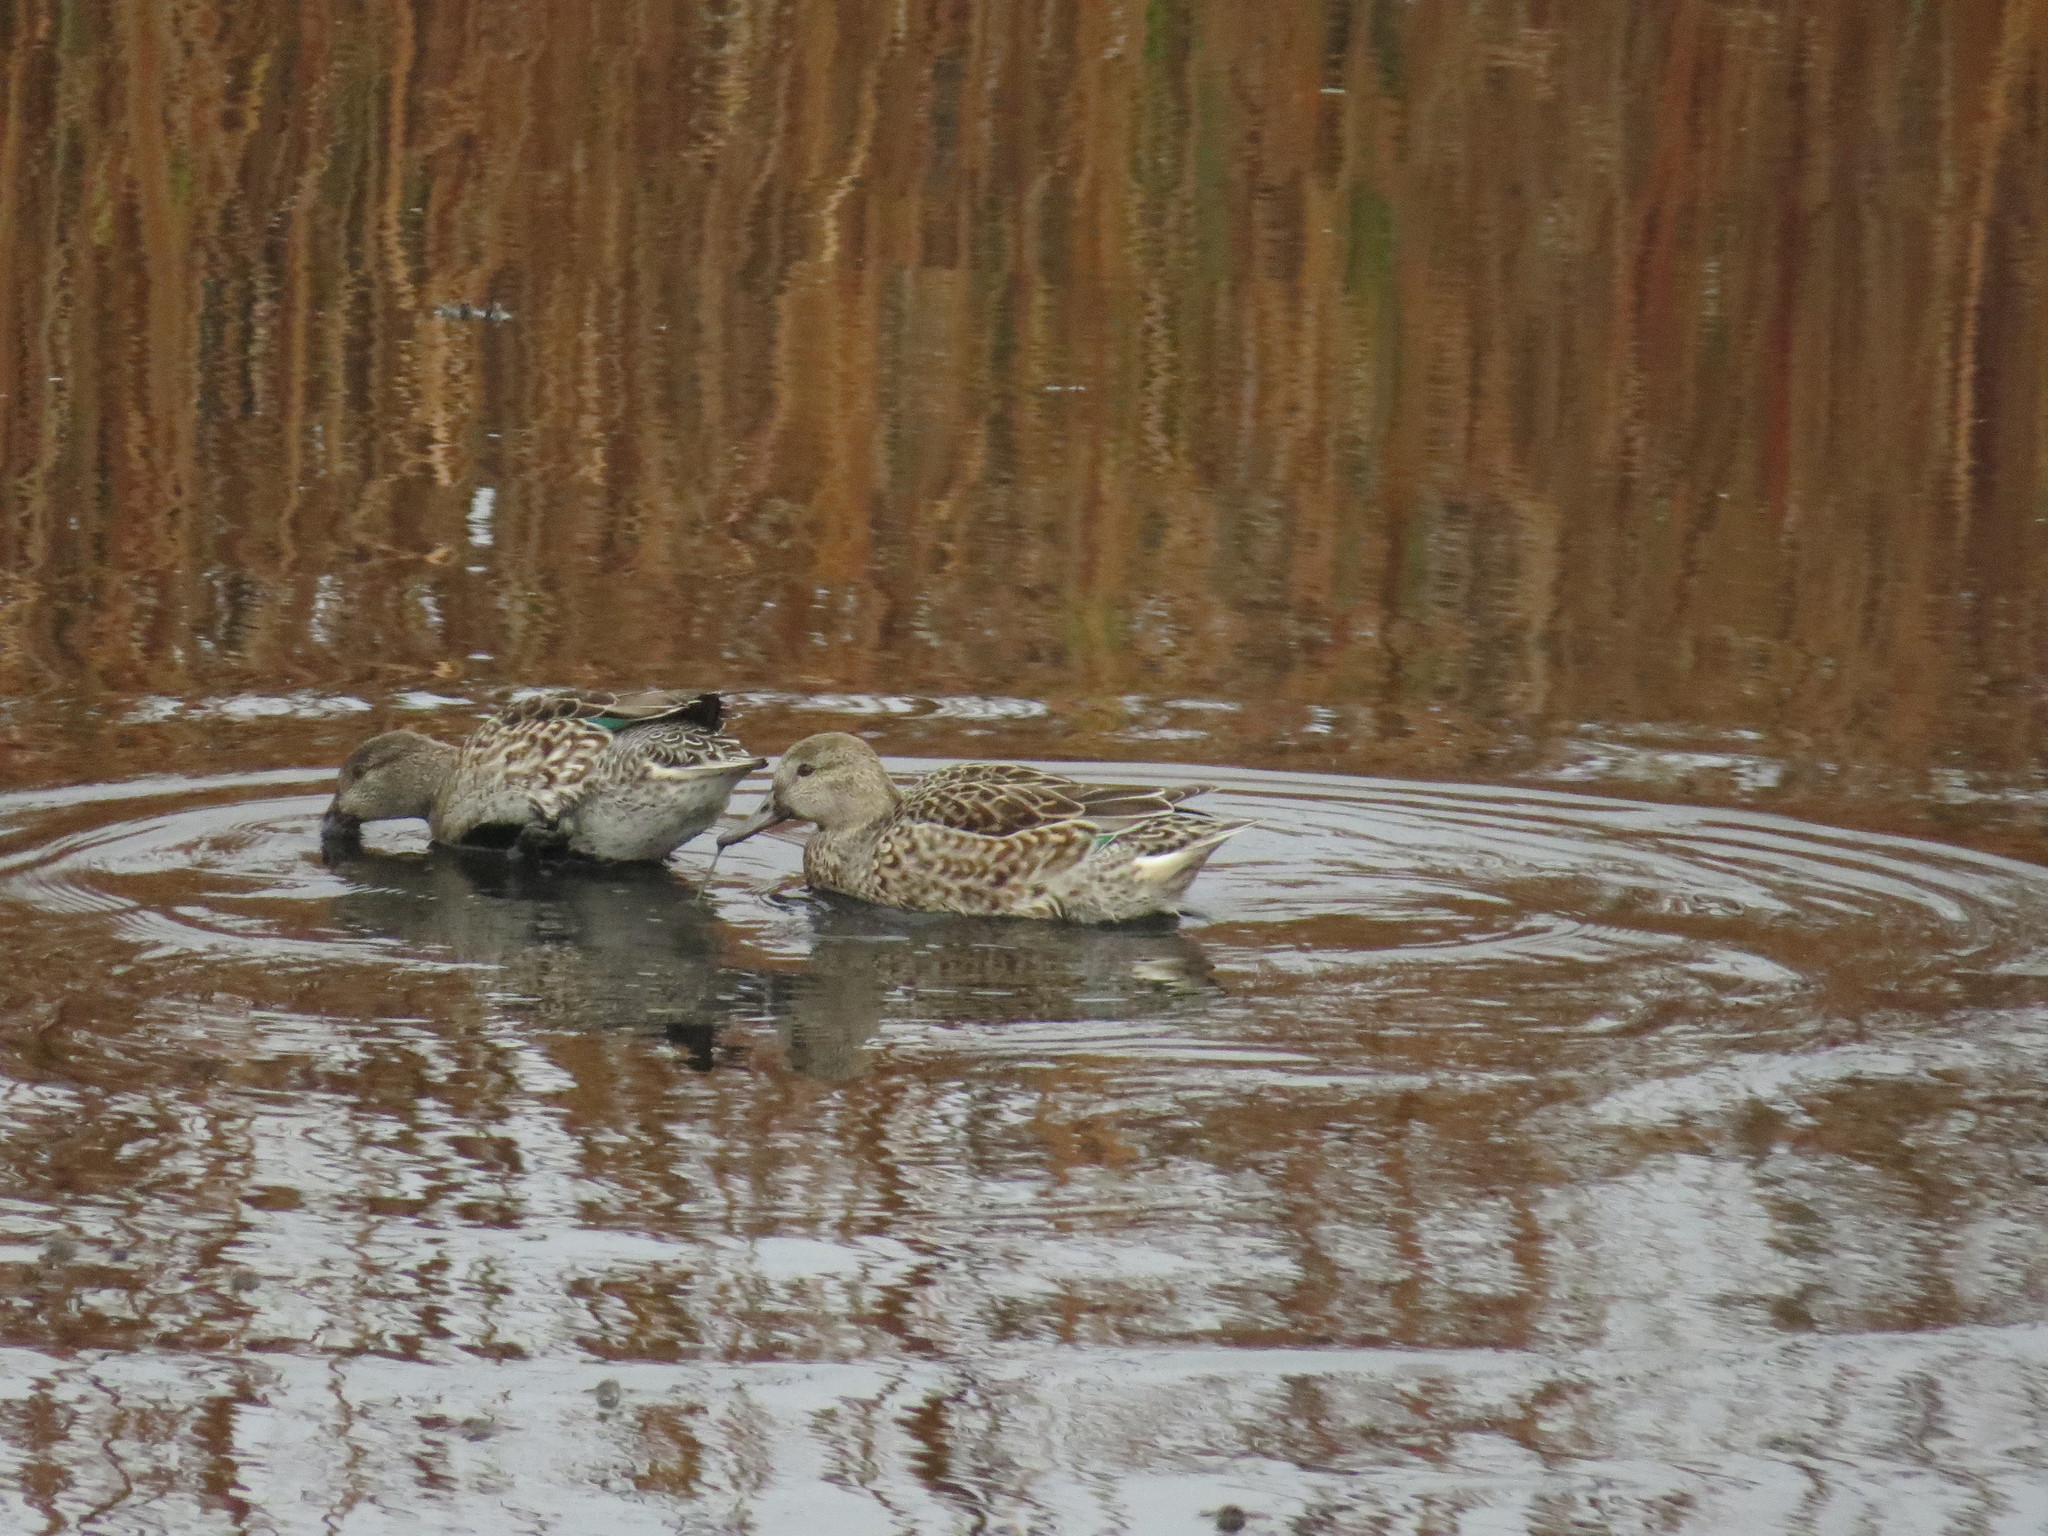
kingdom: Animalia
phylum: Chordata
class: Aves
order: Anseriformes
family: Anatidae
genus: Anas
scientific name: Anas crecca
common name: Eurasian teal
